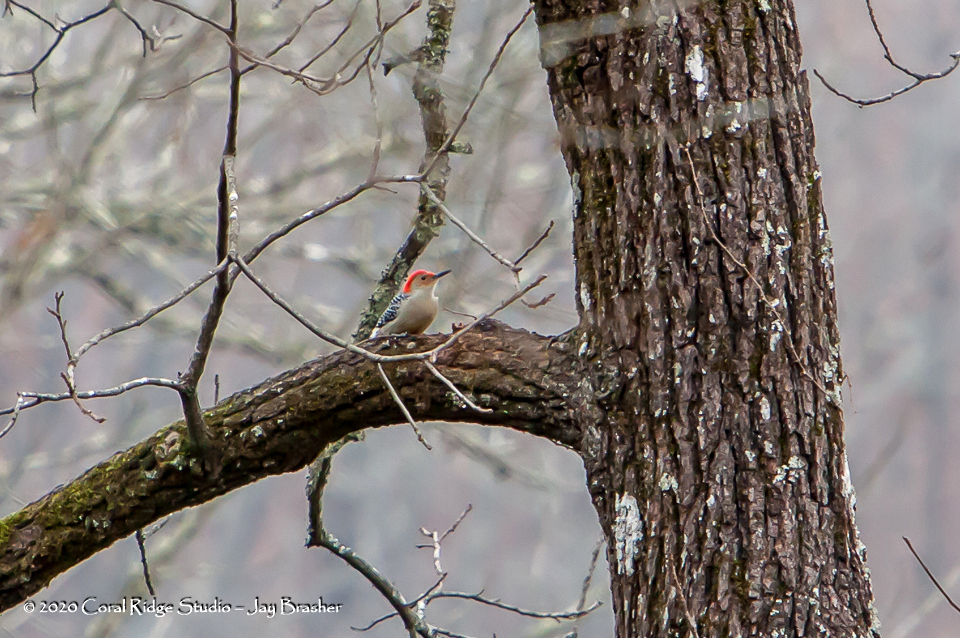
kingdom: Animalia
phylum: Chordata
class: Aves
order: Piciformes
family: Picidae
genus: Melanerpes
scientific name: Melanerpes carolinus
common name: Red-bellied woodpecker
